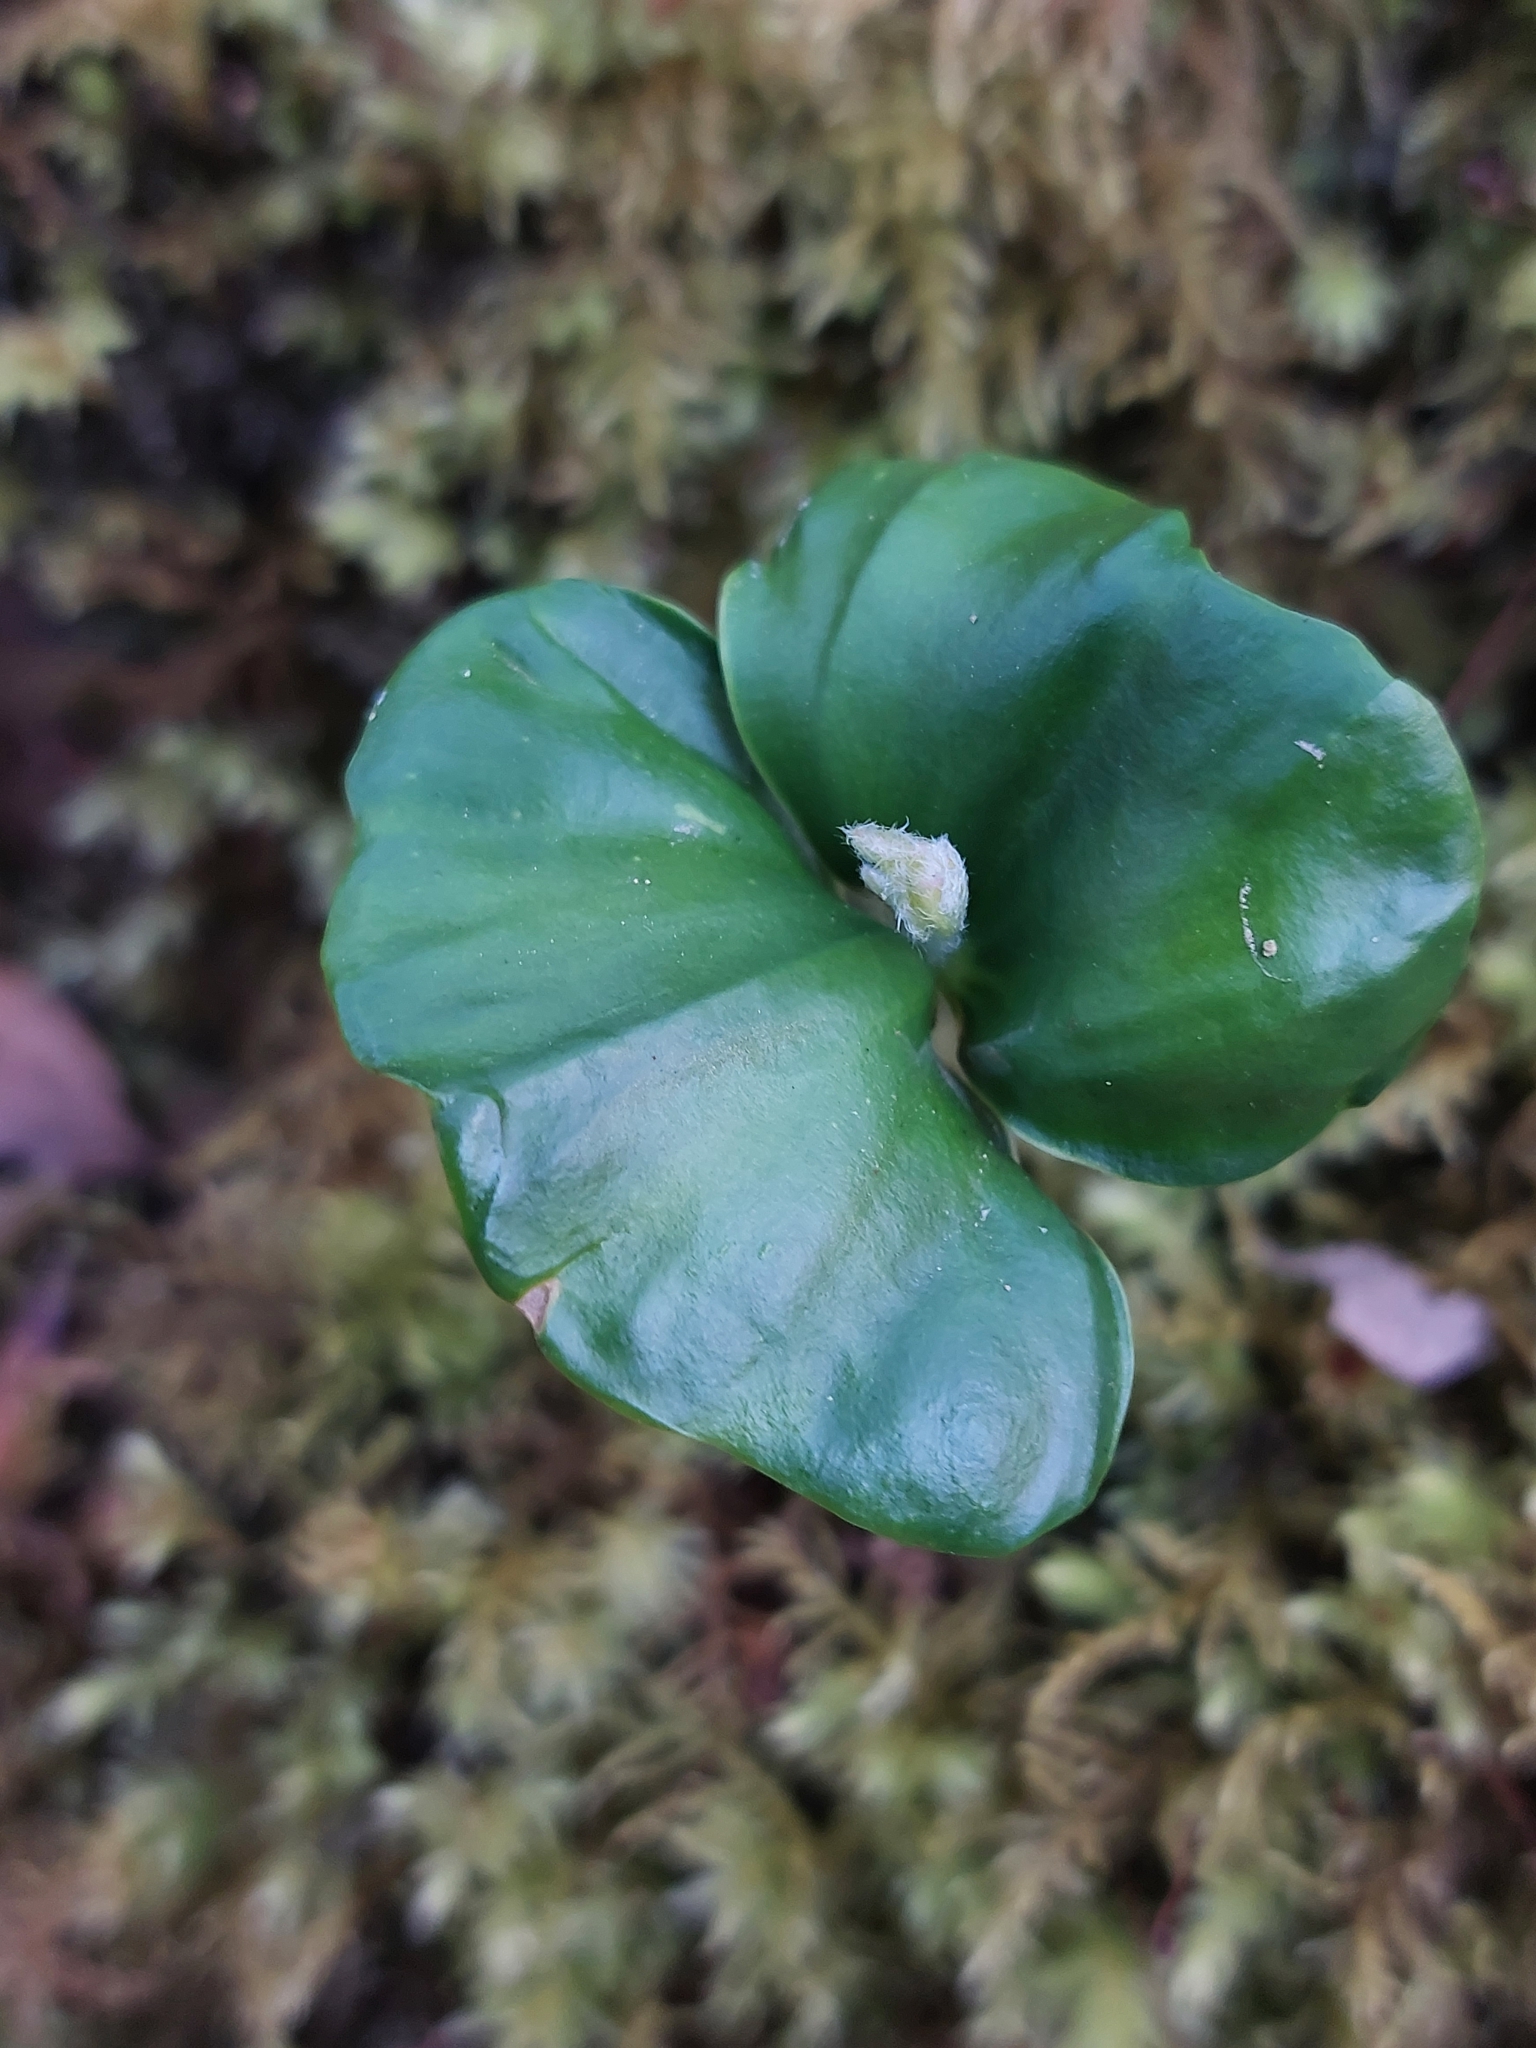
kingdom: Plantae
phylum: Tracheophyta
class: Polypodiopsida
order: Polypodiales
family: Blechnaceae
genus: Struthiopteris
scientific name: Struthiopteris spicant
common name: Deer fern
